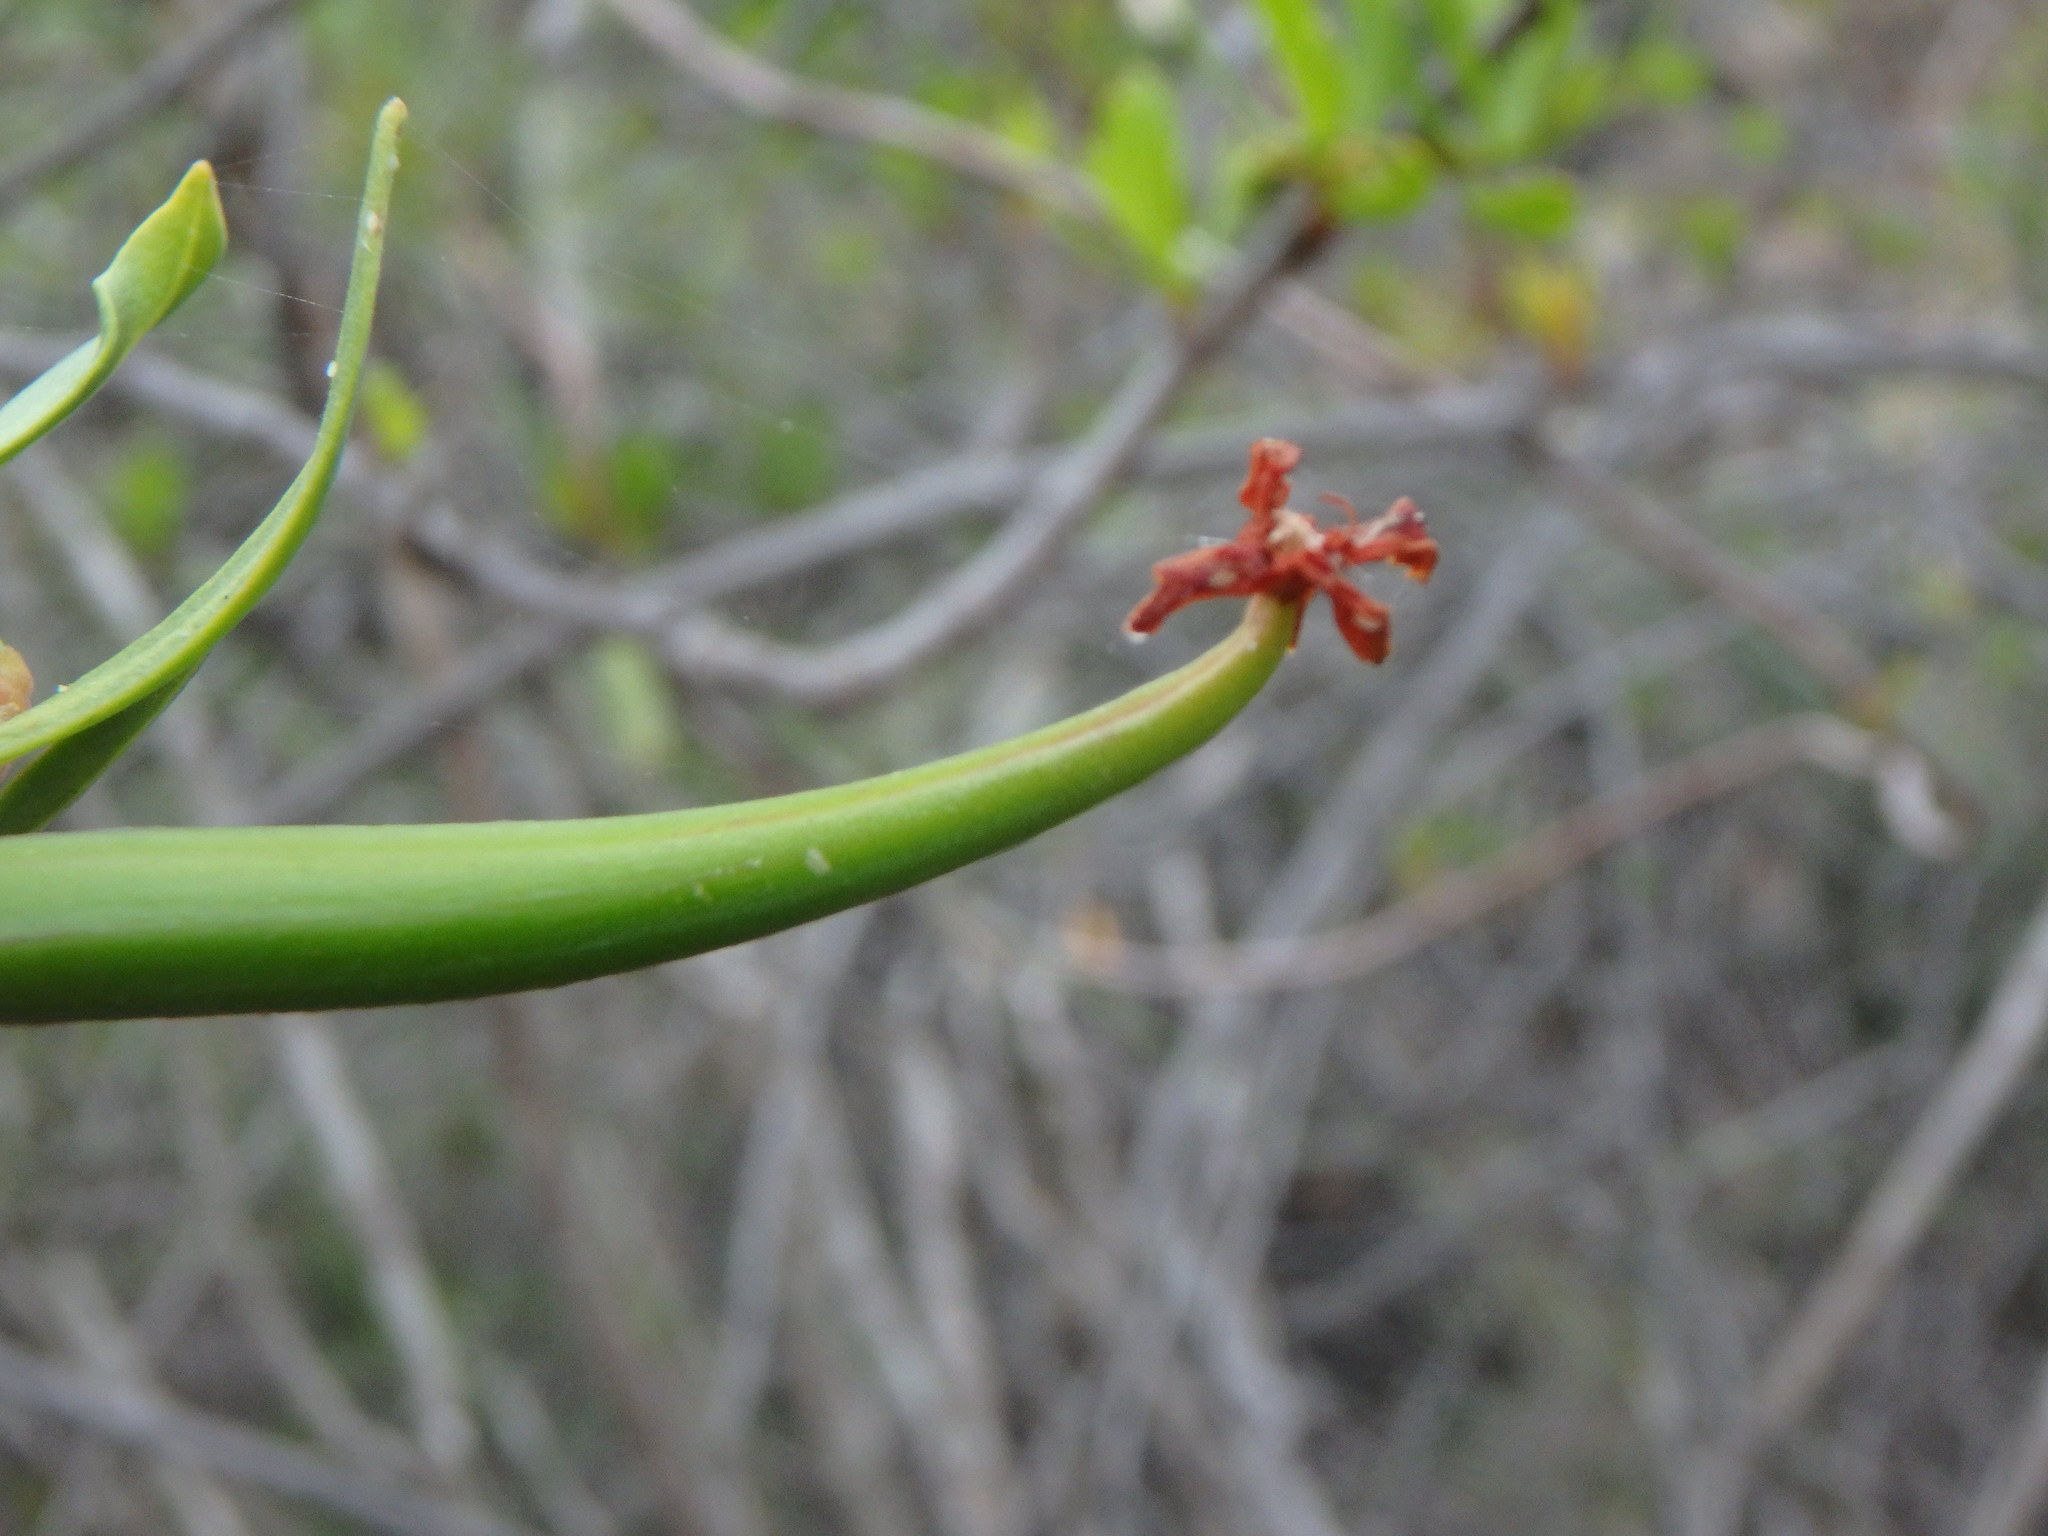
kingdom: Plantae
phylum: Tracheophyta
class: Magnoliopsida
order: Gentianales
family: Apocynaceae
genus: Periploca
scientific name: Periploca laevigata
